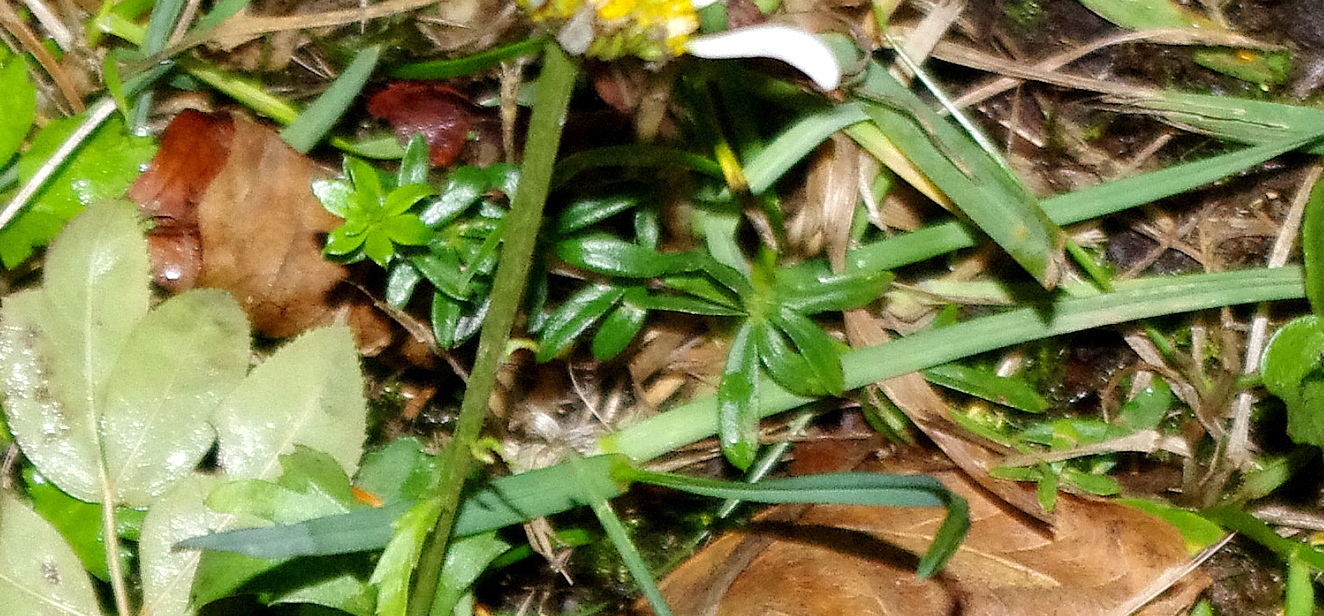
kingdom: Plantae
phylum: Tracheophyta
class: Magnoliopsida
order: Gentianales
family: Rubiaceae
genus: Galium
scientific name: Galium mollugo
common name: Hedge bedstraw
